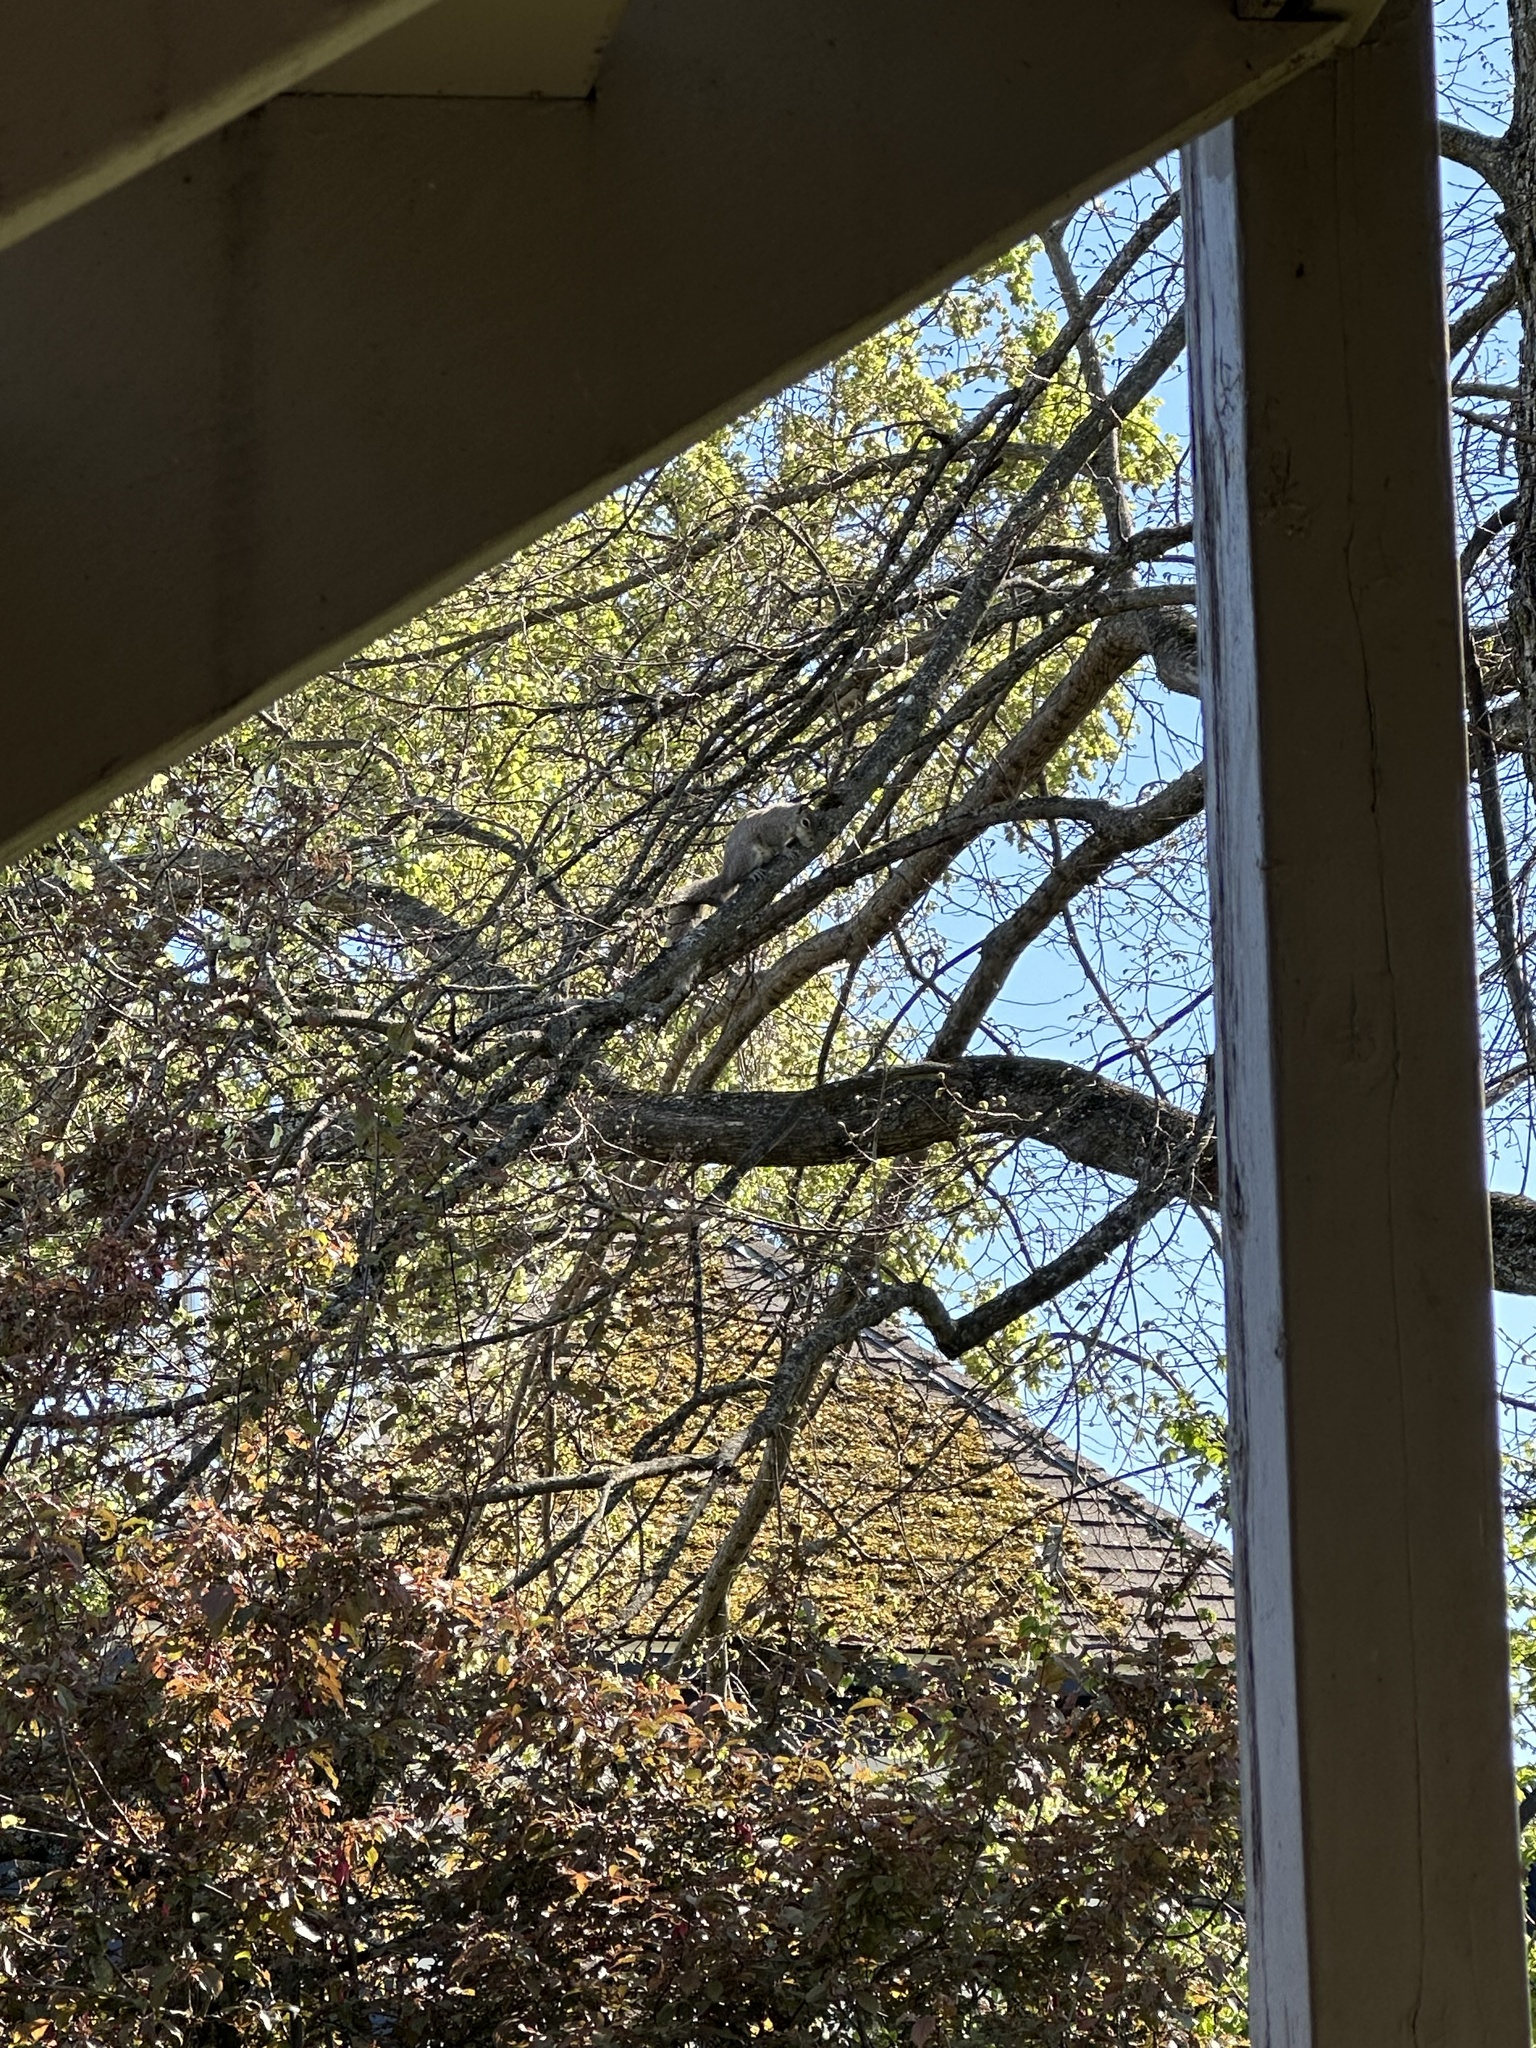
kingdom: Animalia
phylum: Chordata
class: Mammalia
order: Rodentia
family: Sciuridae
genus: Sciurus
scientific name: Sciurus carolinensis
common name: Eastern gray squirrel
